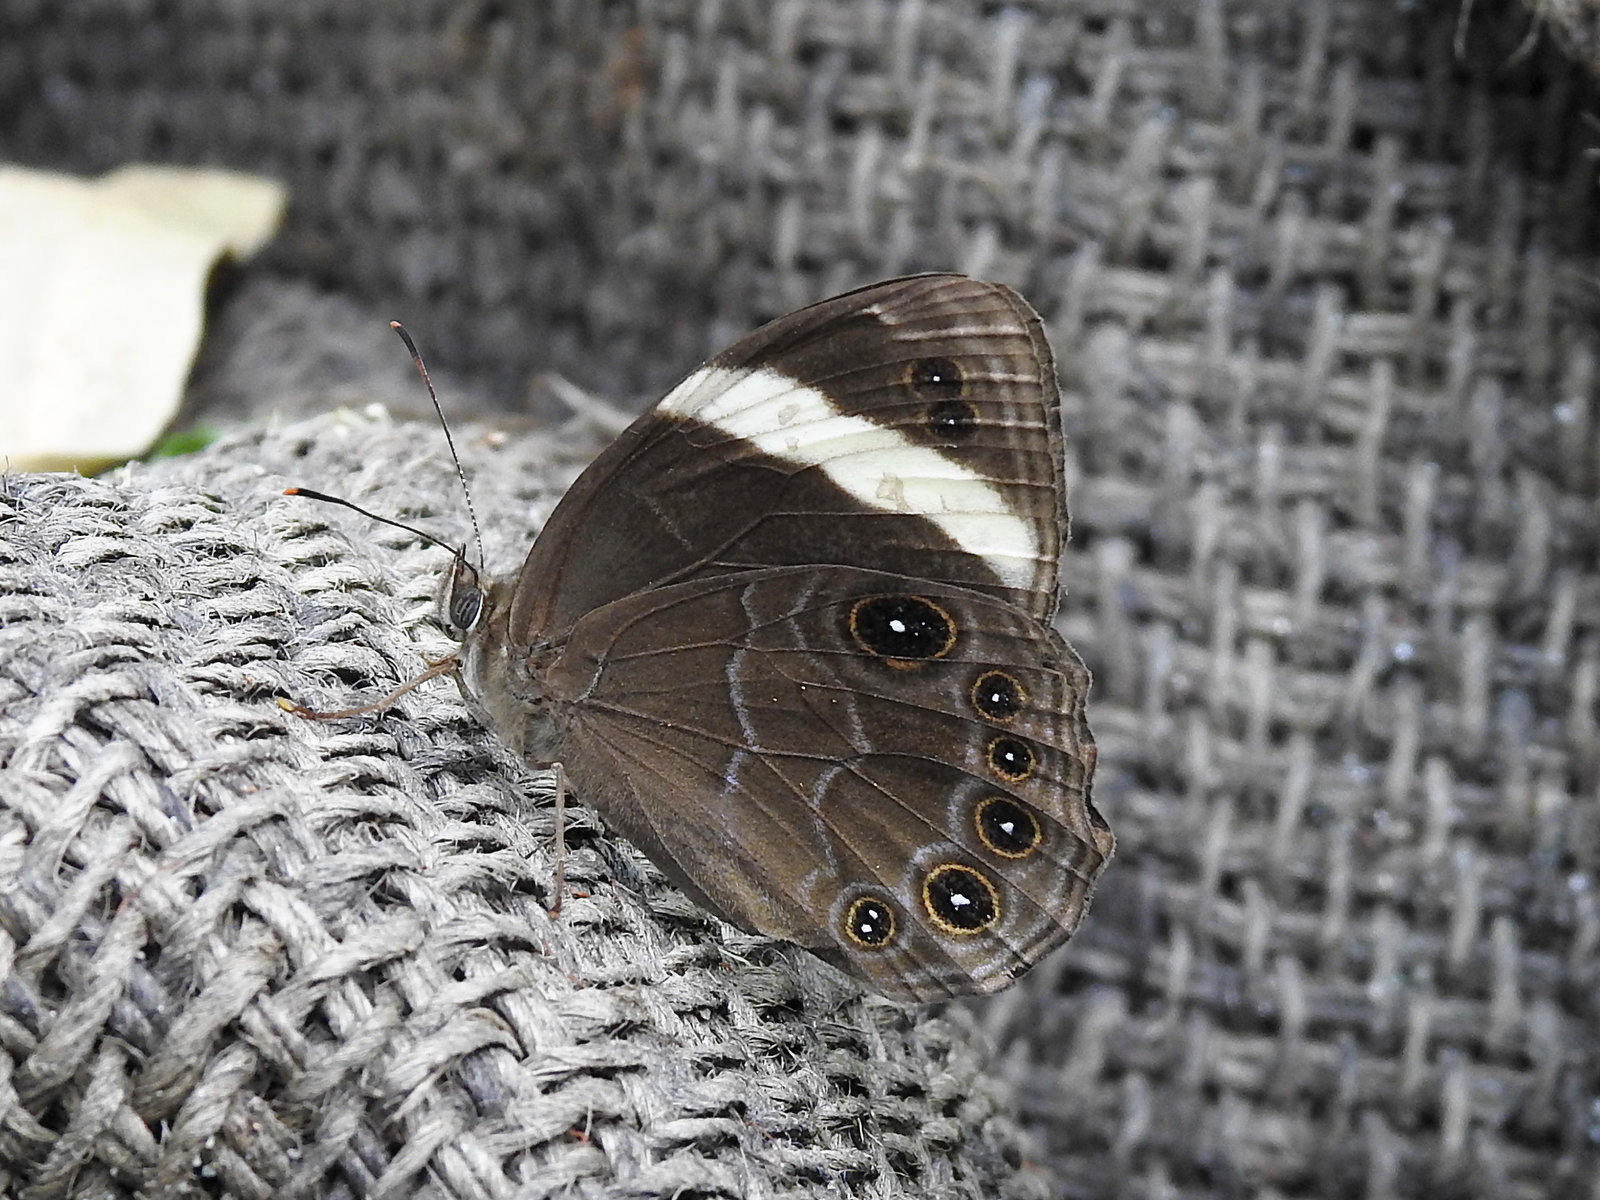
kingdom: Animalia
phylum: Arthropoda
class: Insecta
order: Lepidoptera
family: Nymphalidae
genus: Lethe
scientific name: Lethe verma
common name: Straight-banded treebrown
